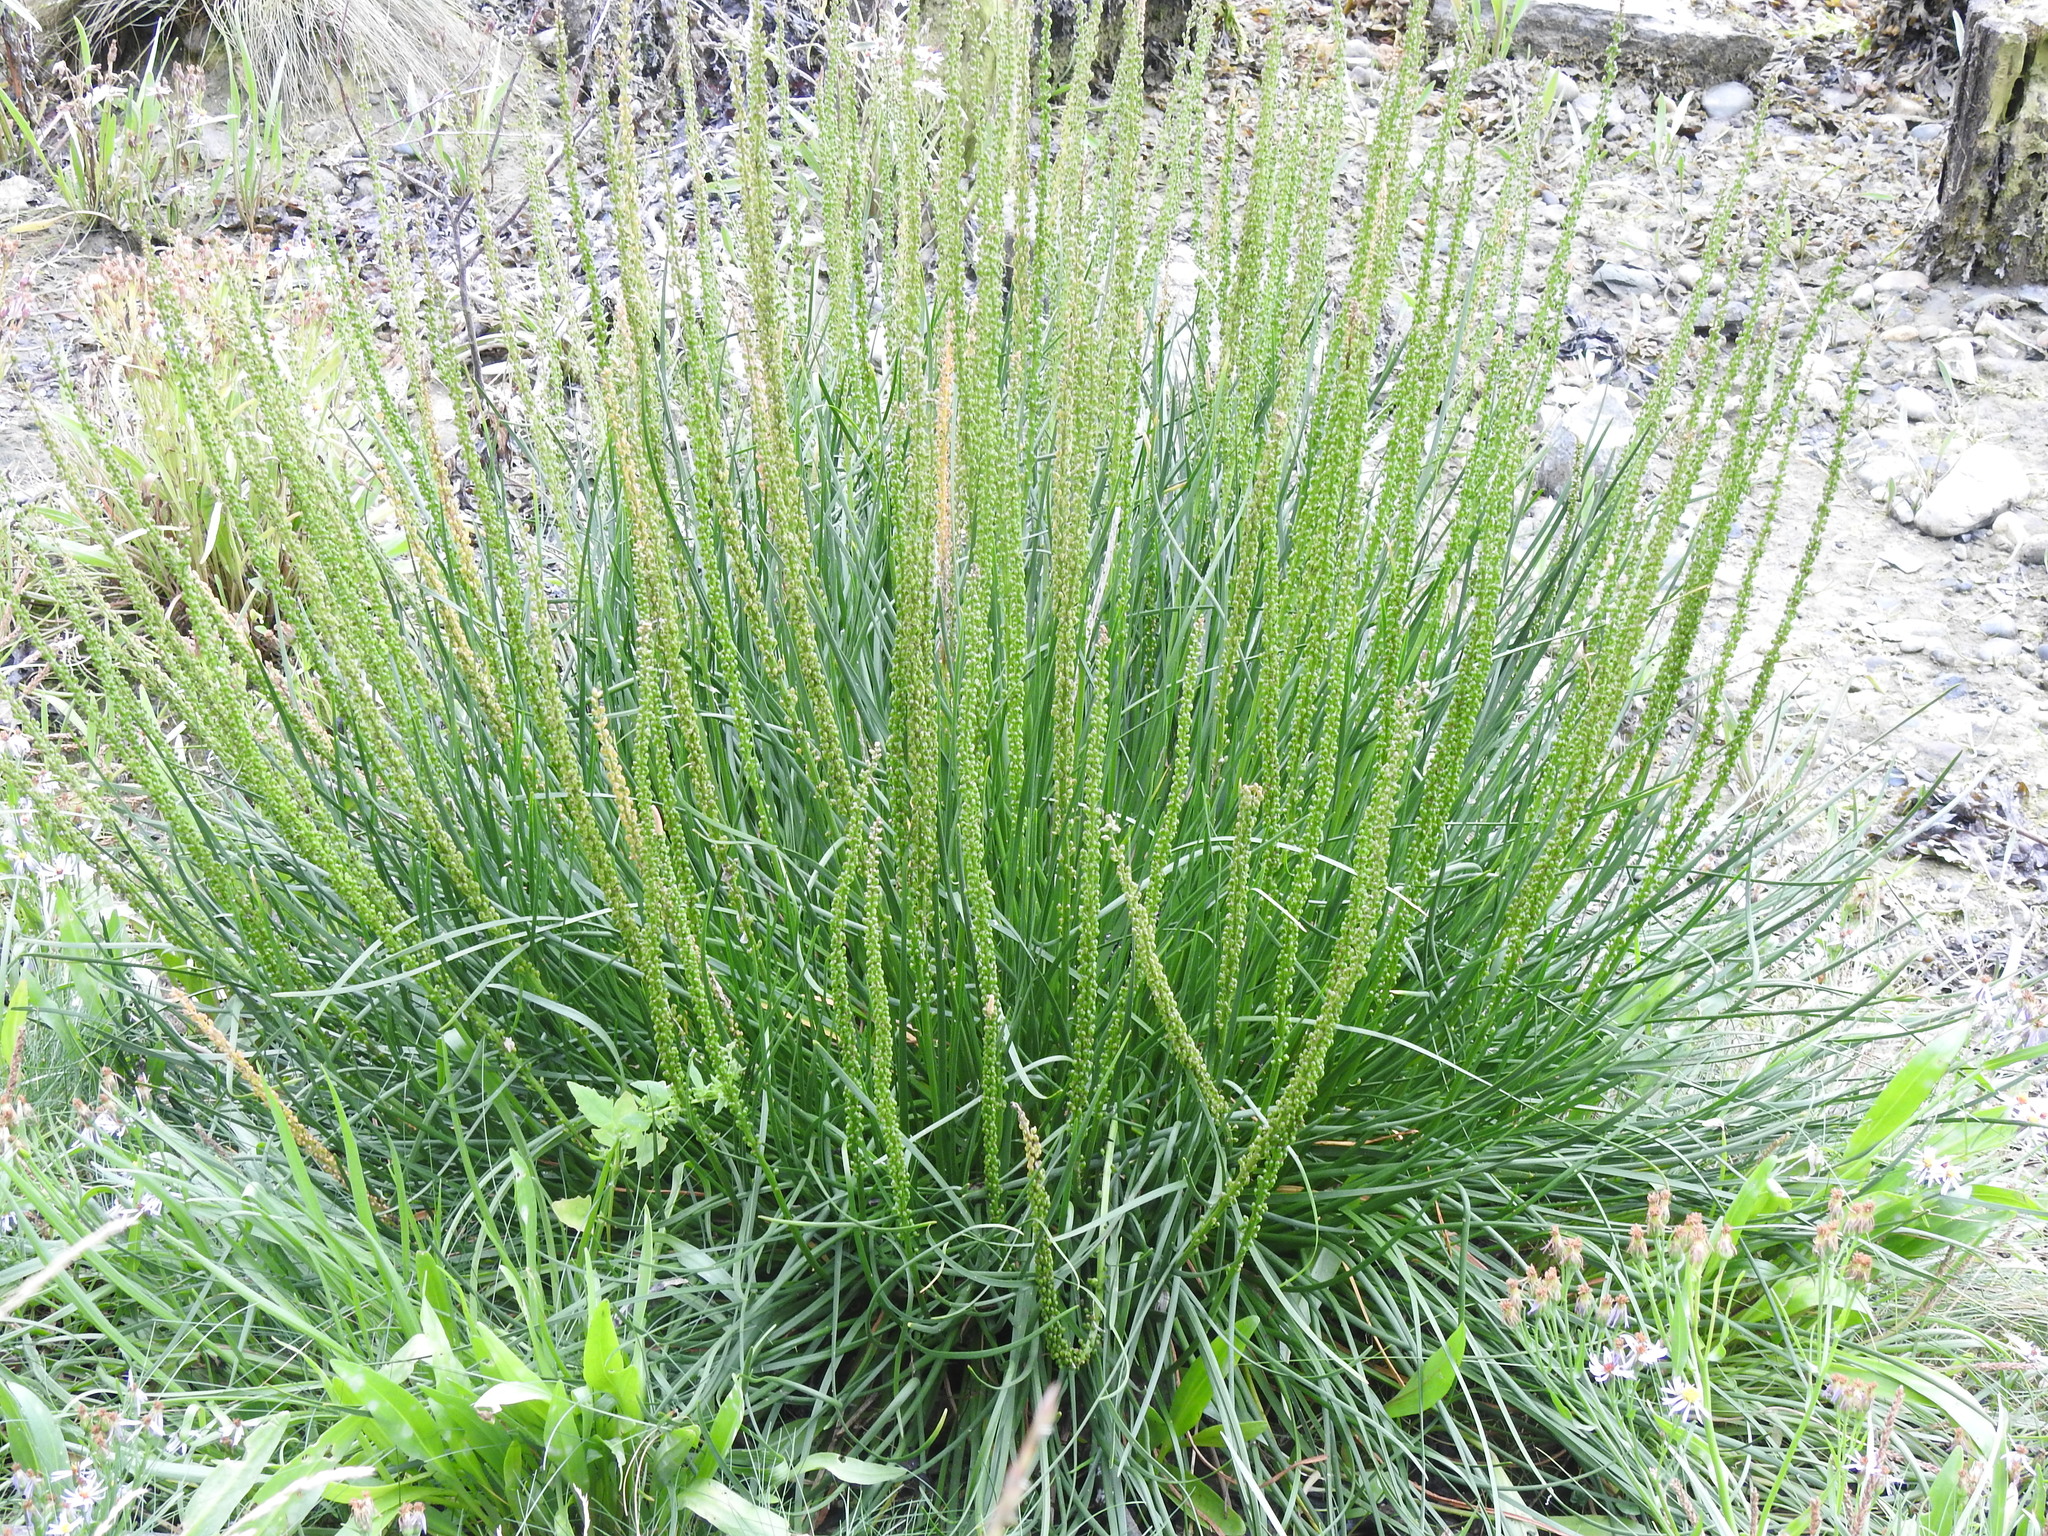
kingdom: Plantae
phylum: Tracheophyta
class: Liliopsida
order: Alismatales
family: Juncaginaceae
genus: Triglochin
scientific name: Triglochin maritima
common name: Sea arrowgrass
